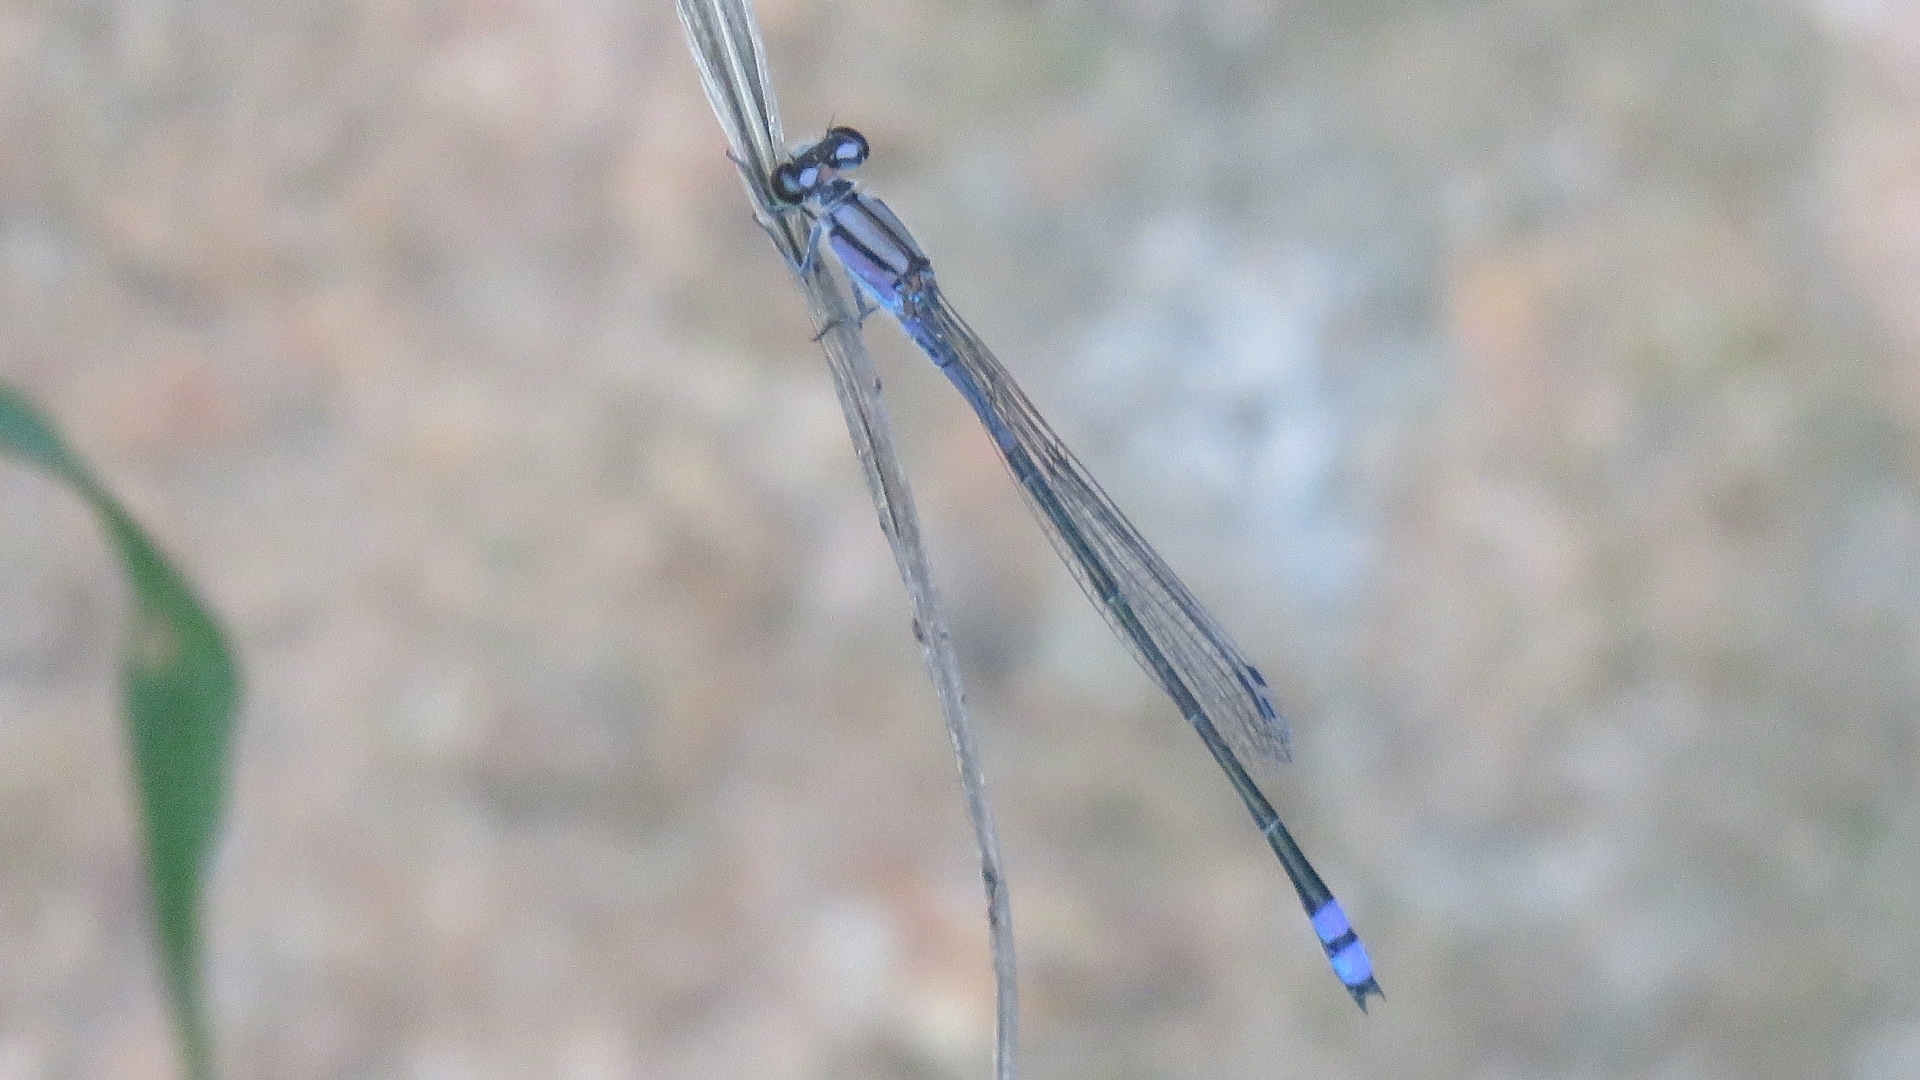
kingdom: Animalia
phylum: Arthropoda
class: Insecta
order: Odonata
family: Coenagrionidae
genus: Enallagma
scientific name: Enallagma novaehispaniae
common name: Neotropical bluet
